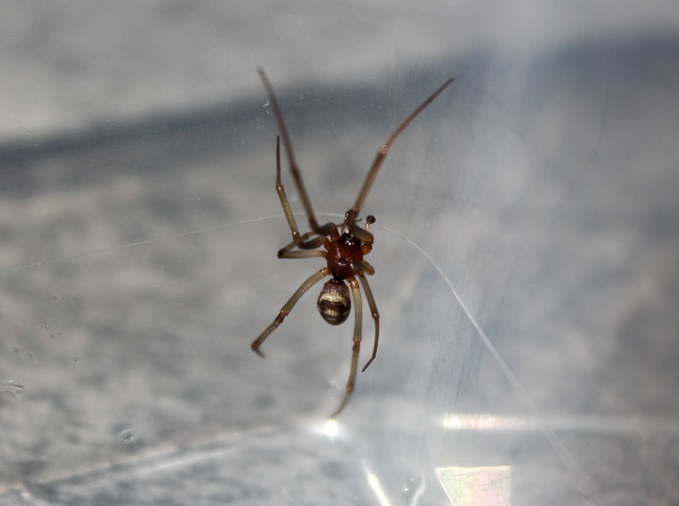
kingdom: Animalia
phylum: Arthropoda
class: Arachnida
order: Araneae
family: Theridiidae
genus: Steatoda
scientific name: Steatoda grossa
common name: False black widow
